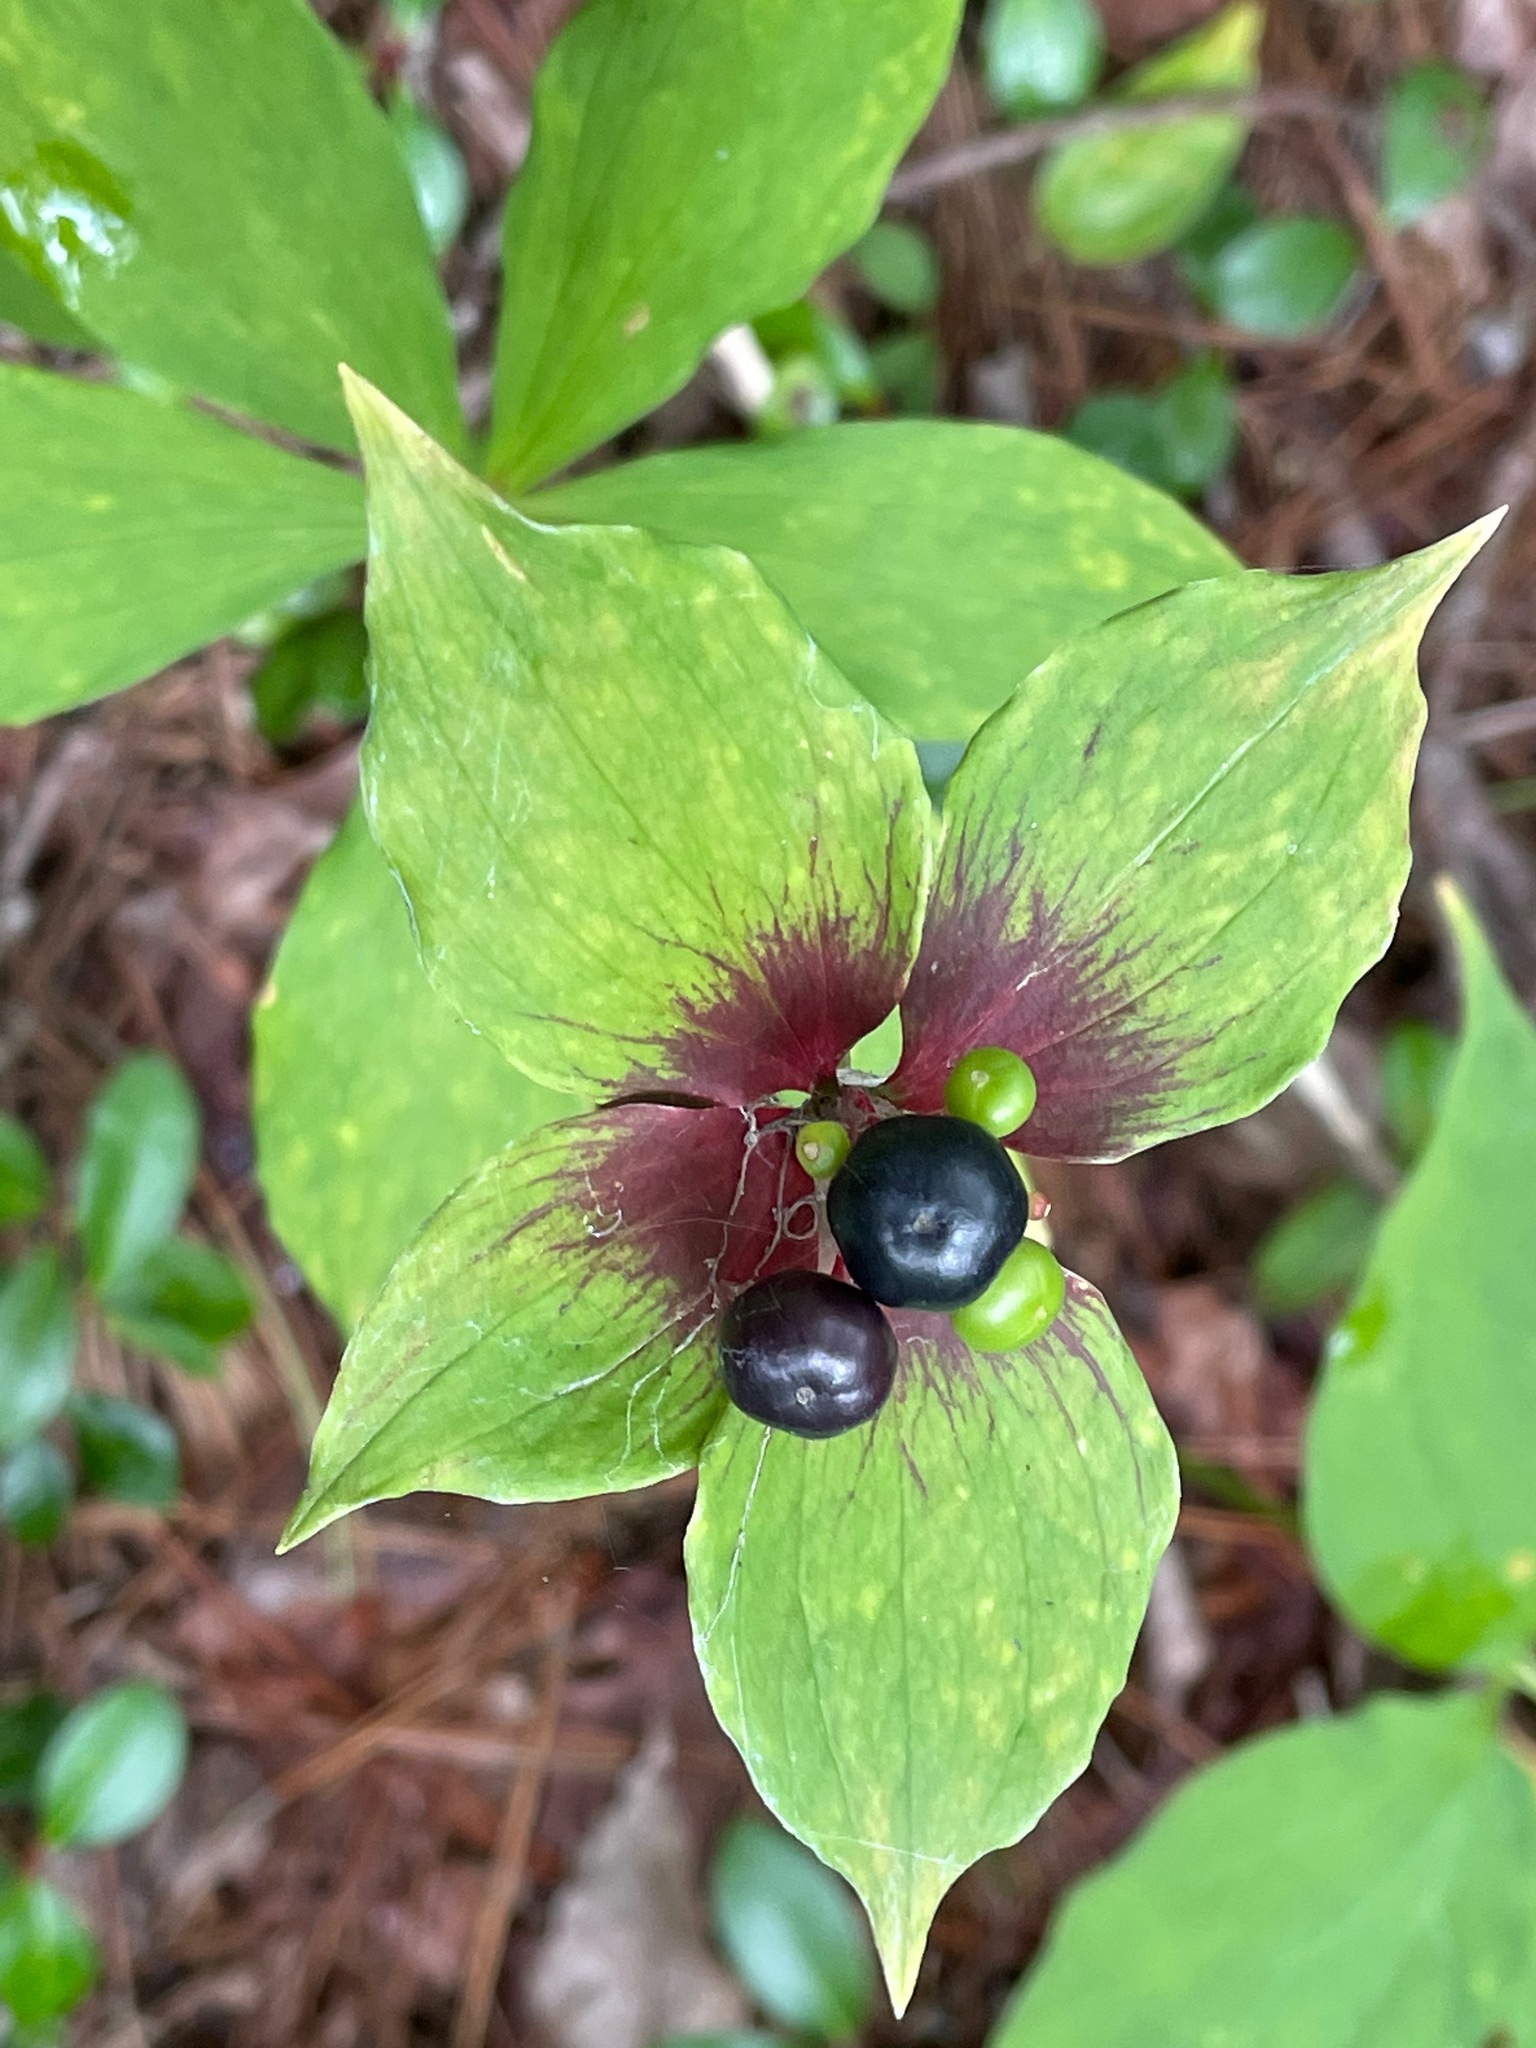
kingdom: Plantae
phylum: Tracheophyta
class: Liliopsida
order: Liliales
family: Liliaceae
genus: Medeola
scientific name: Medeola virginiana
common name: Indian cucumber-root
